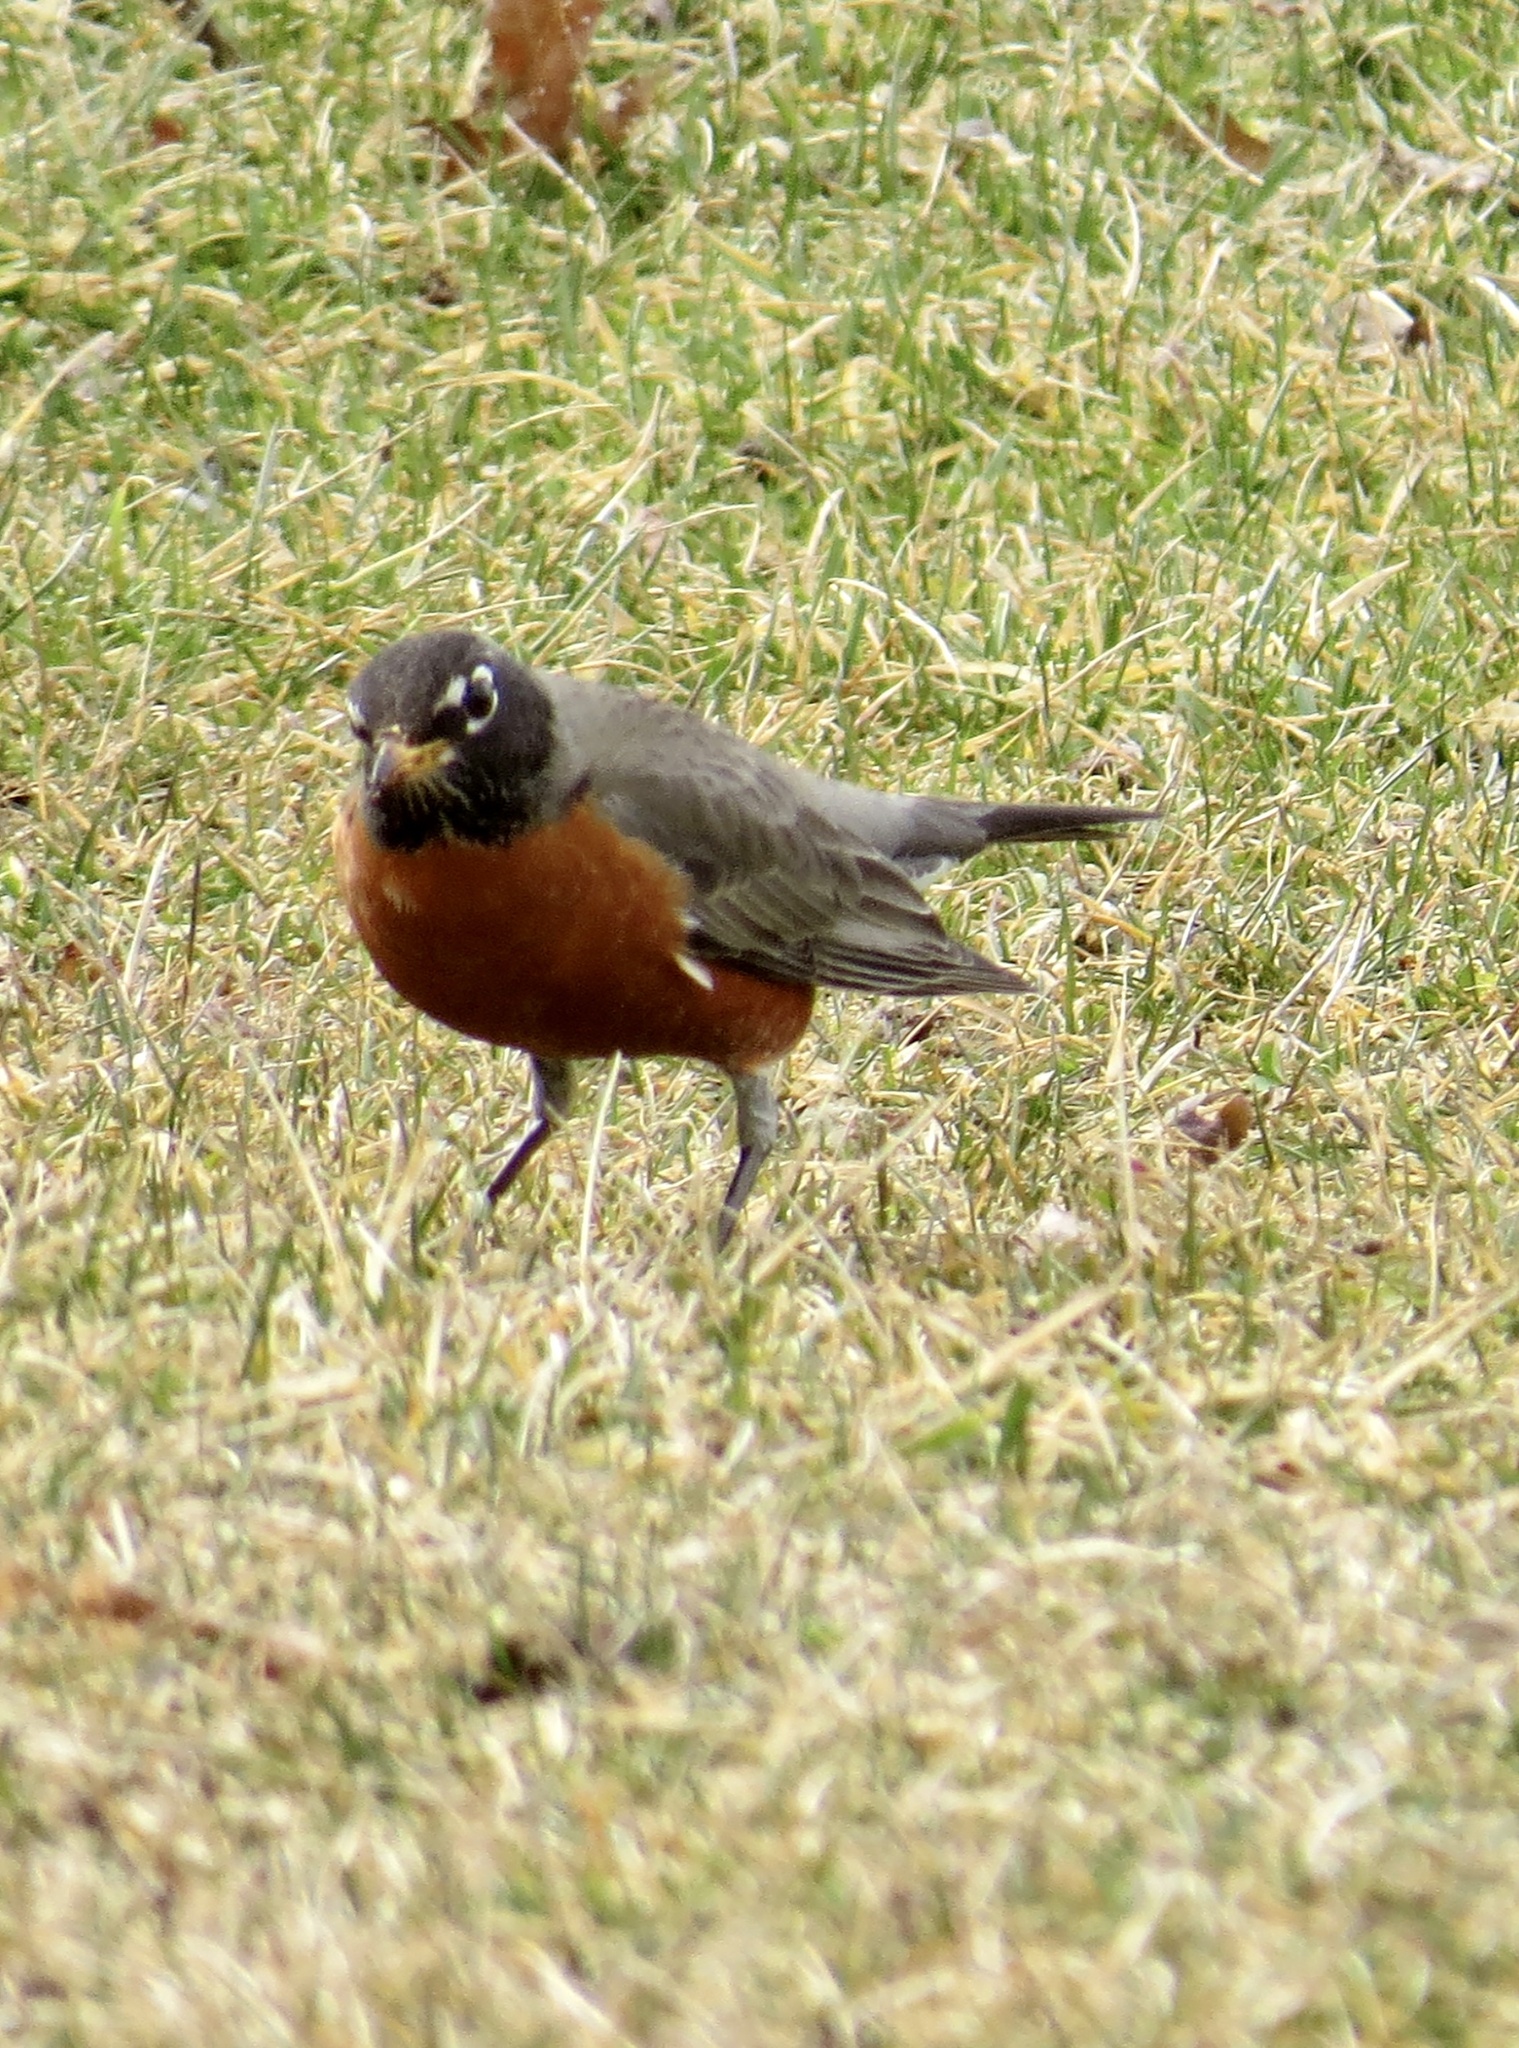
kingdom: Animalia
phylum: Chordata
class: Aves
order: Passeriformes
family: Turdidae
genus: Turdus
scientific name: Turdus migratorius
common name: American robin
